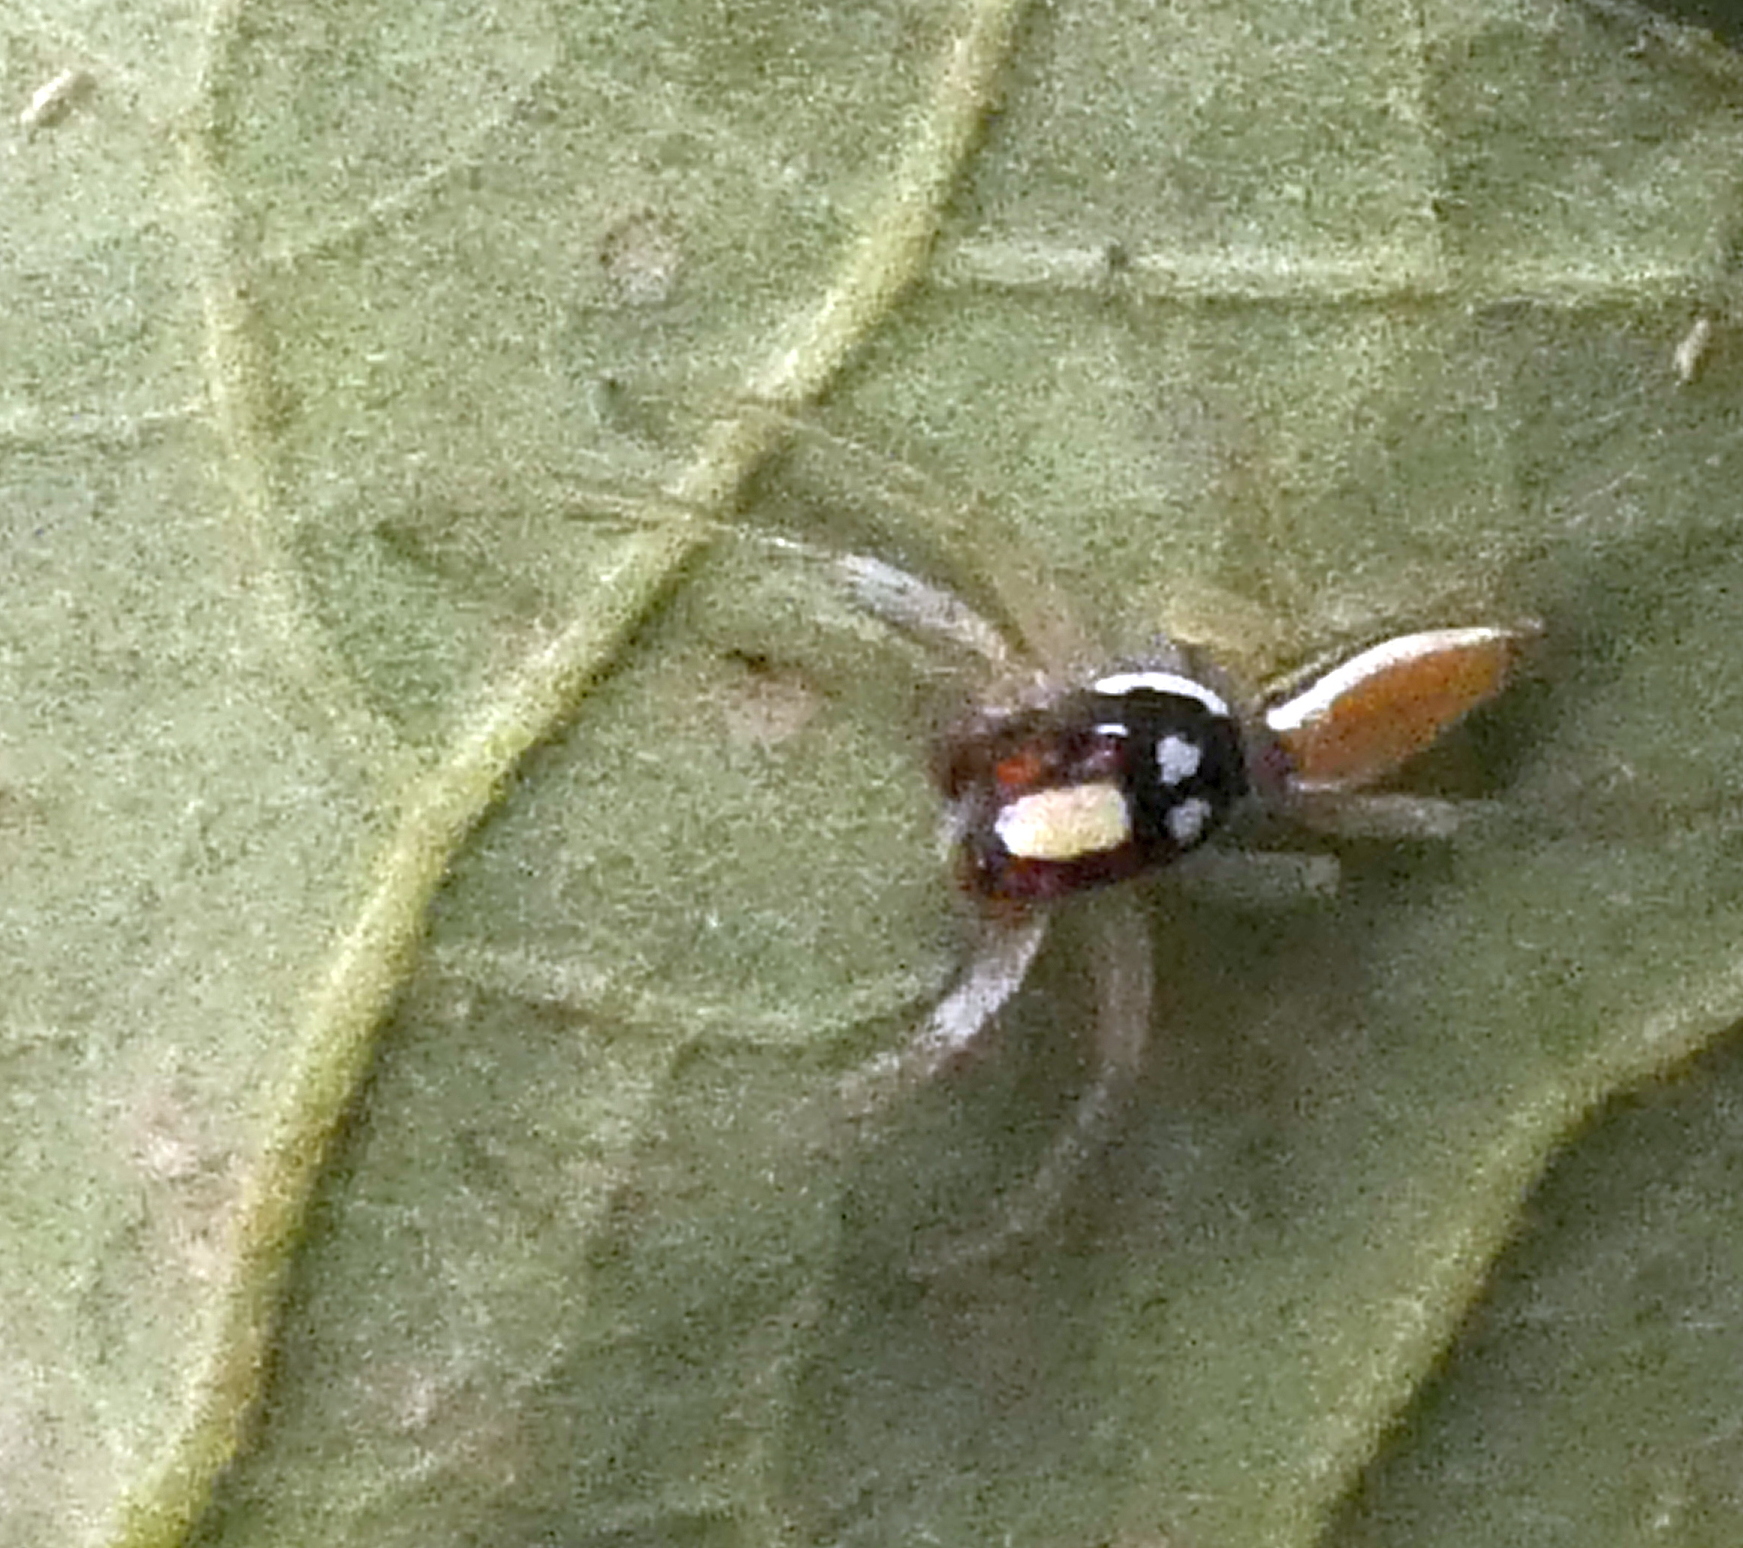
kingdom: Animalia
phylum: Arthropoda
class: Arachnida
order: Araneae
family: Salticidae
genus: Chira
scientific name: Chira spinosa
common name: Jumping spiders
